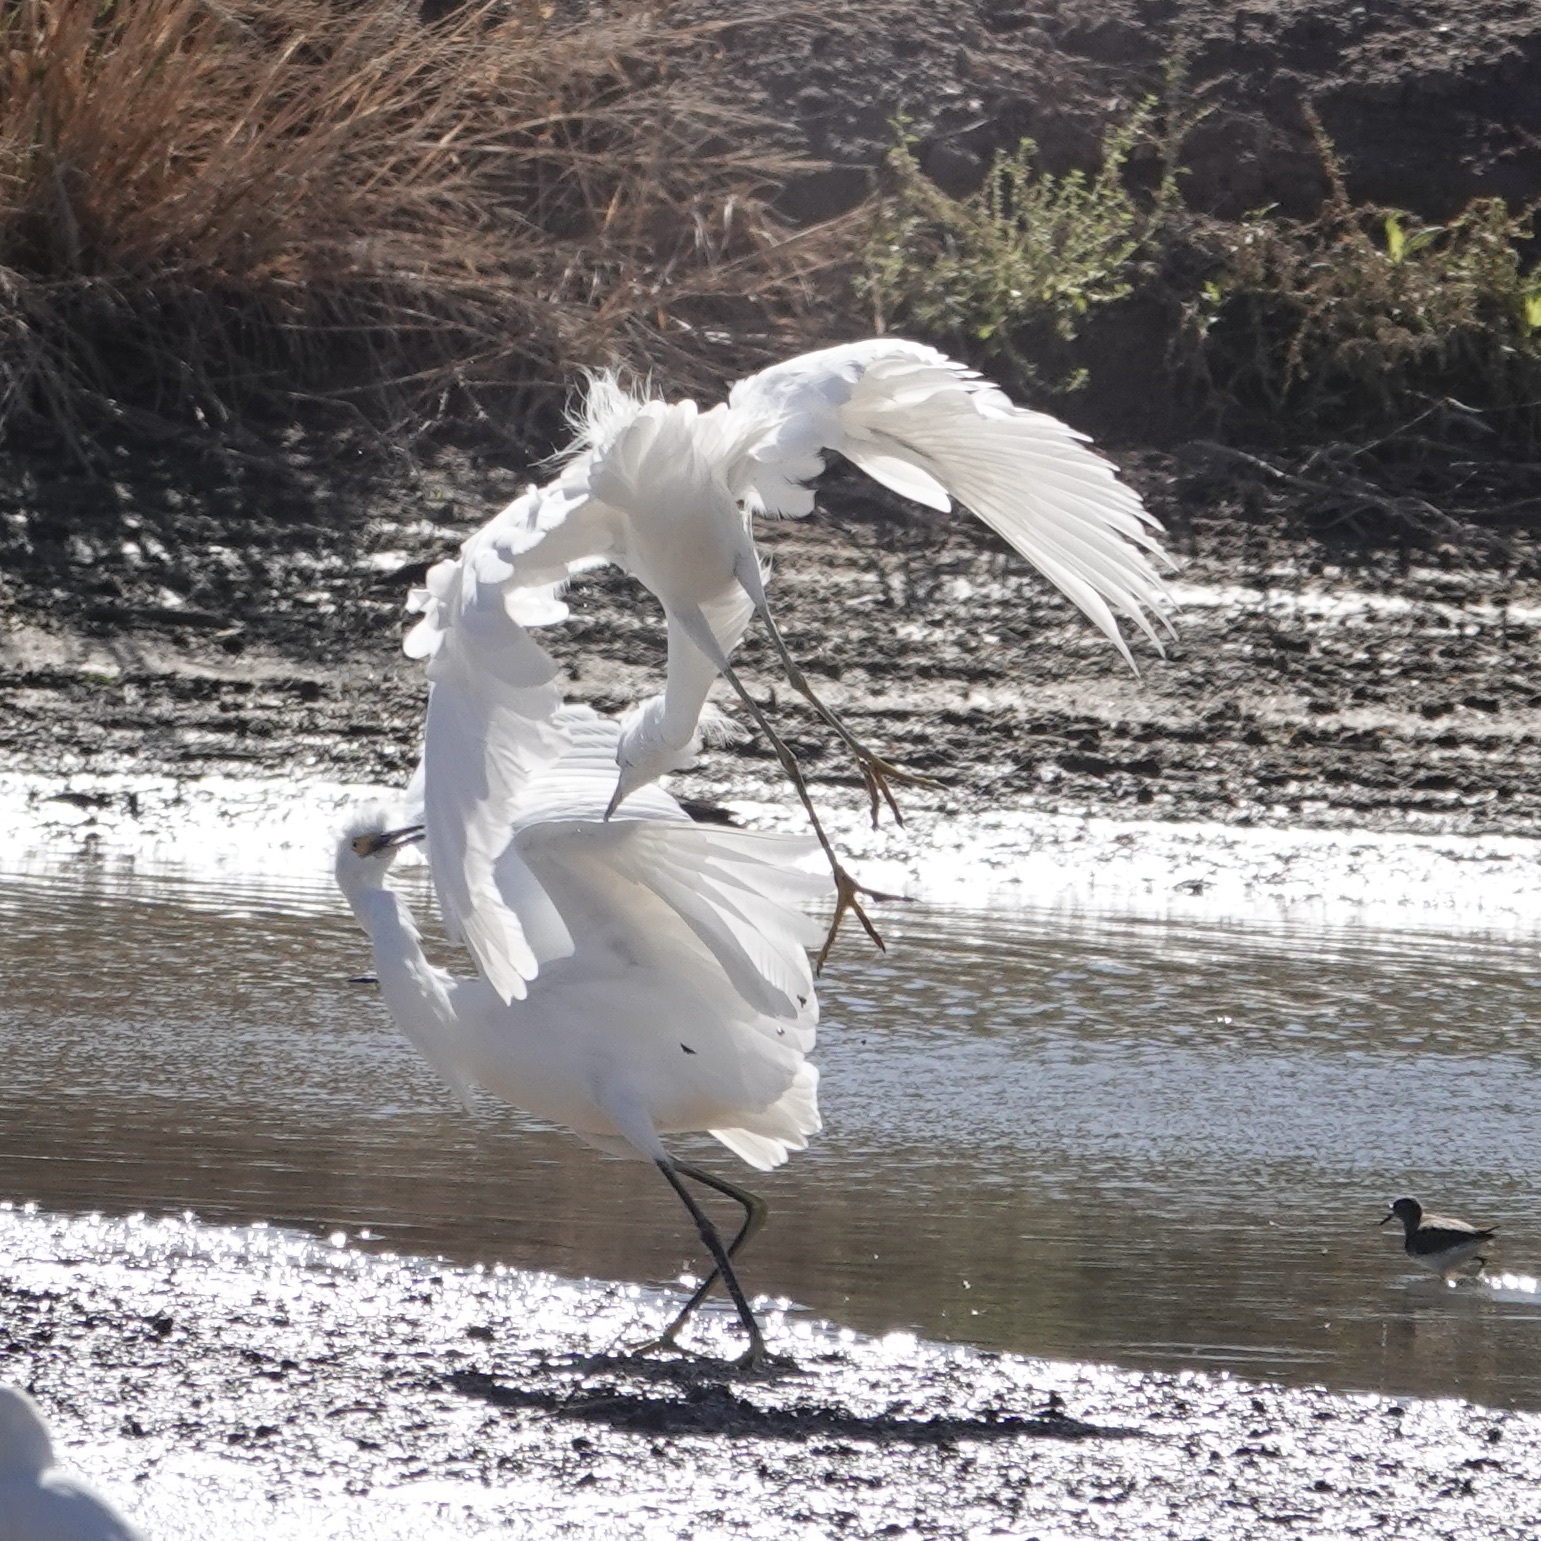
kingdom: Animalia
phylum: Chordata
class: Aves
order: Pelecaniformes
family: Ardeidae
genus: Egretta
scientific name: Egretta thula
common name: Snowy egret
